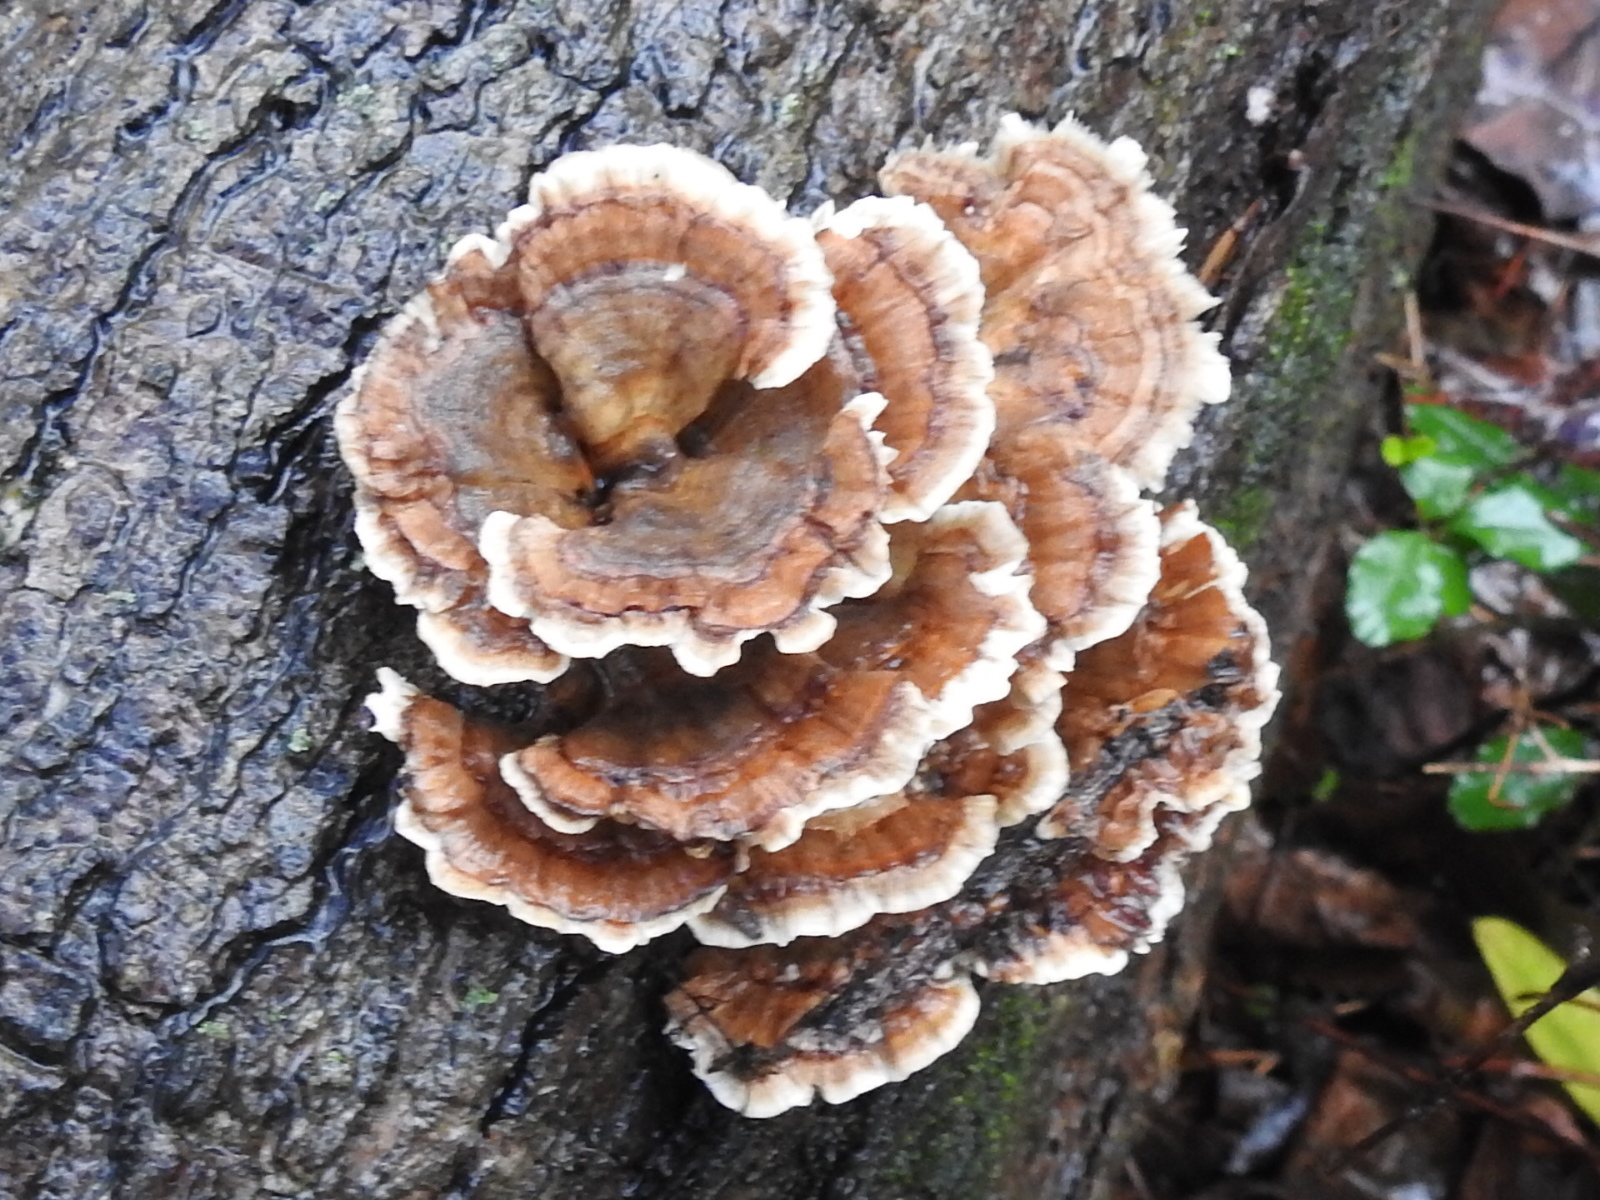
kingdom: Fungi
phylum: Basidiomycota
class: Agaricomycetes
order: Polyporales
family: Polyporaceae
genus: Trametes
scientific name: Trametes versicolor
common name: Turkeytail
